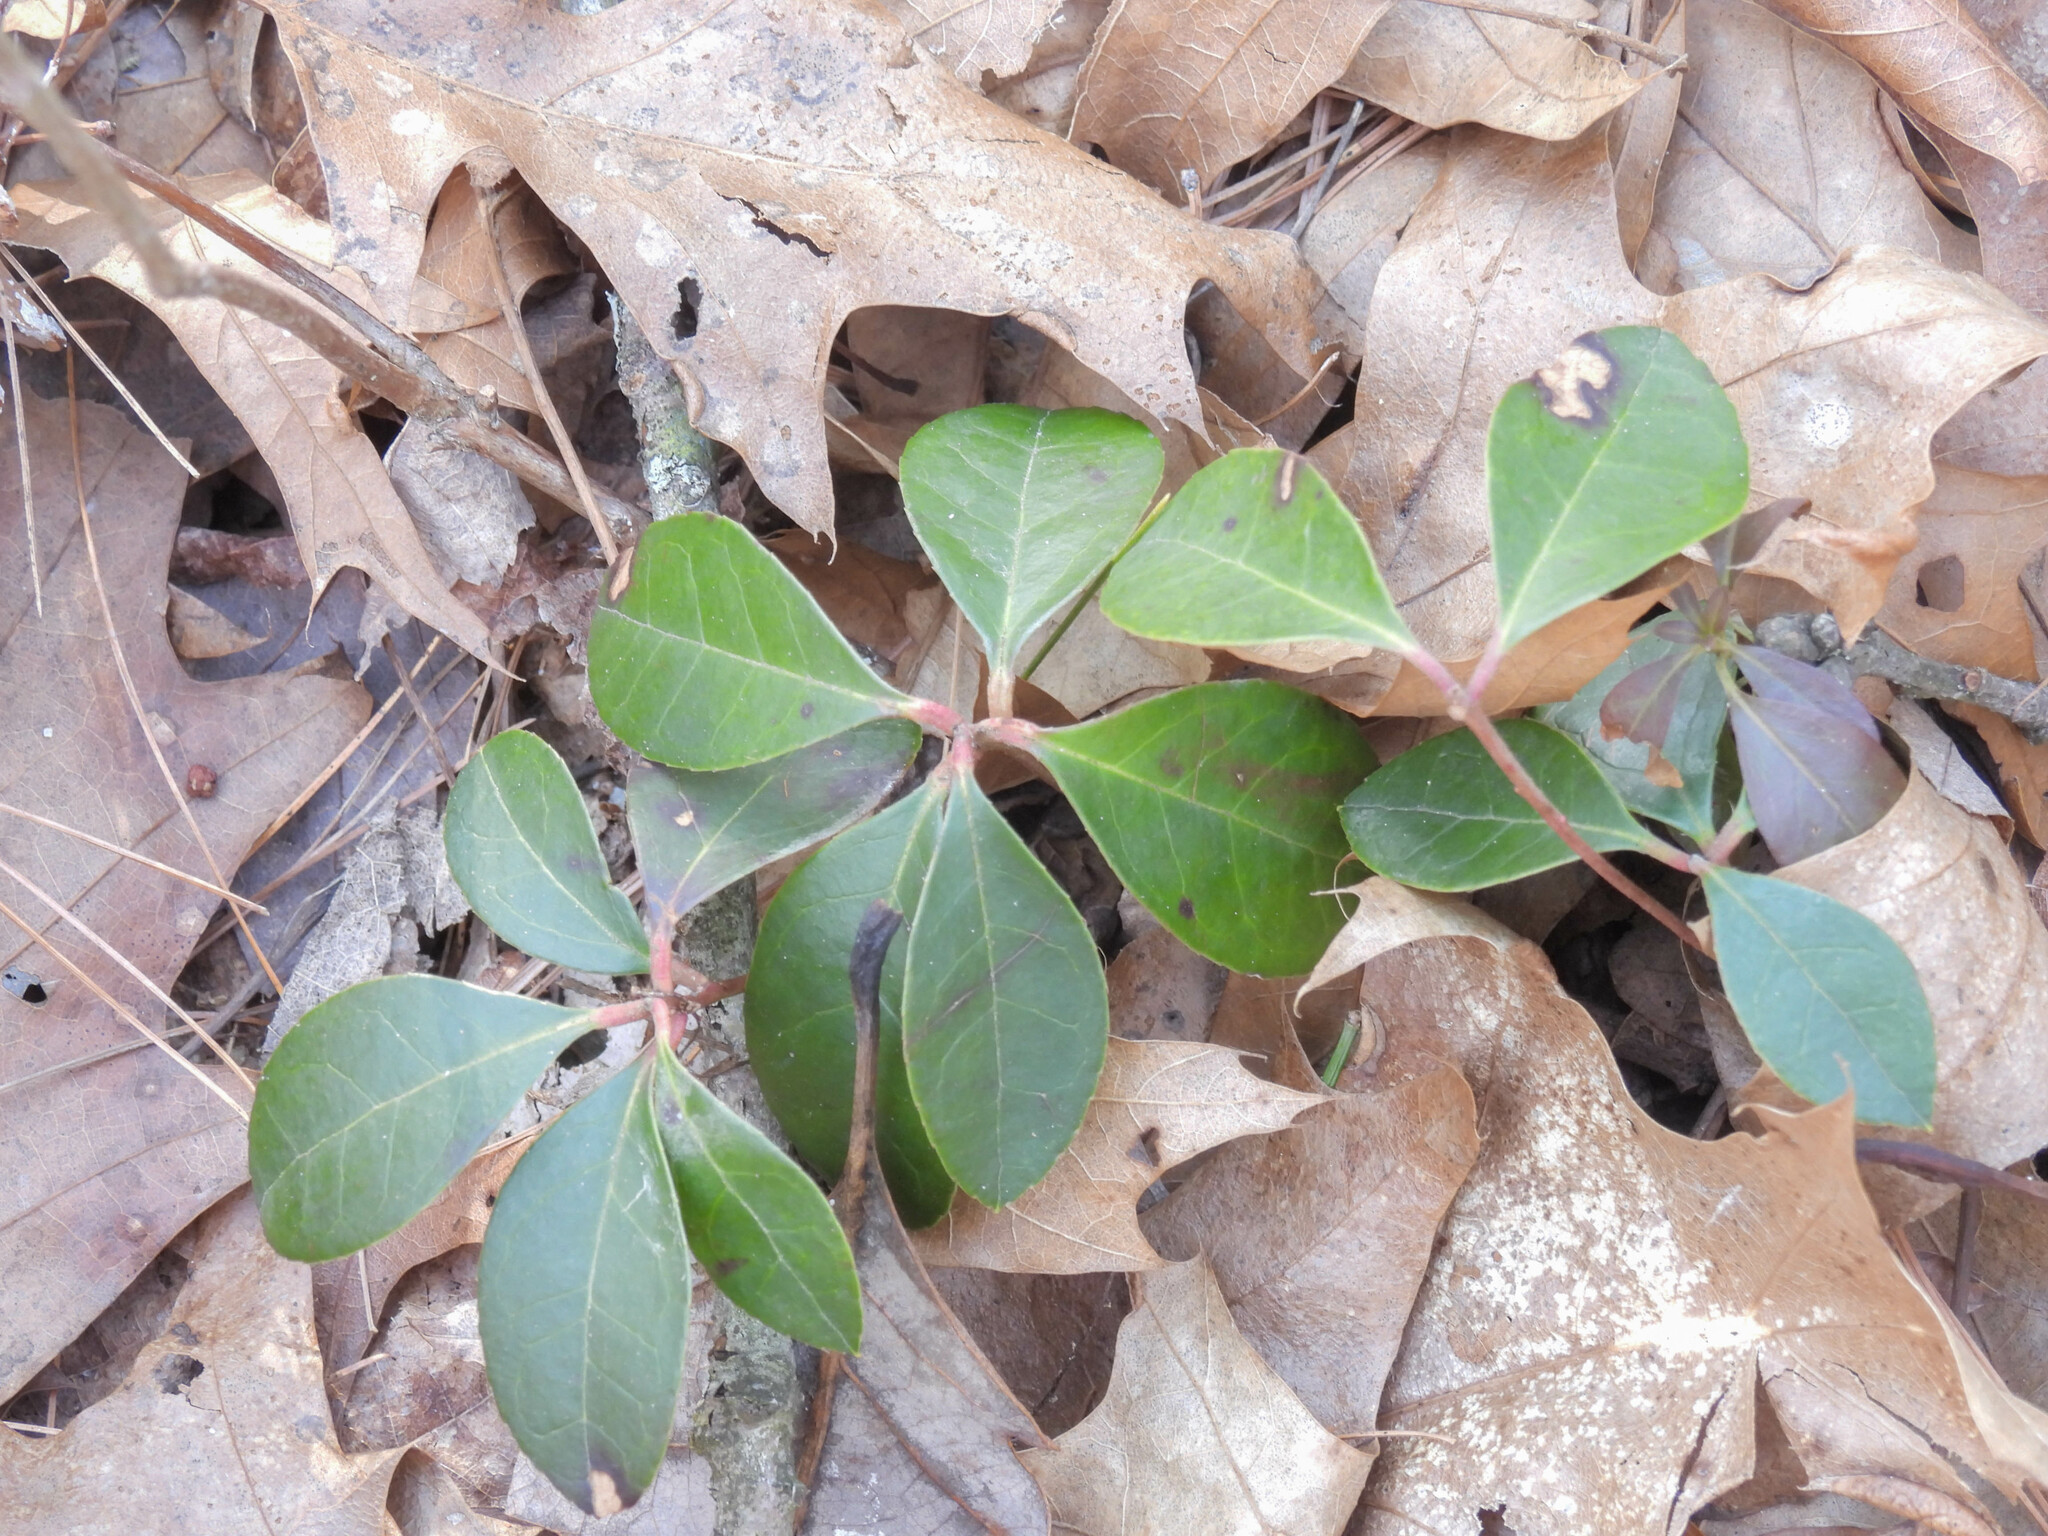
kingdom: Plantae
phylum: Tracheophyta
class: Magnoliopsida
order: Ericales
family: Ericaceae
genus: Gaultheria
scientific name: Gaultheria procumbens
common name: Checkerberry
